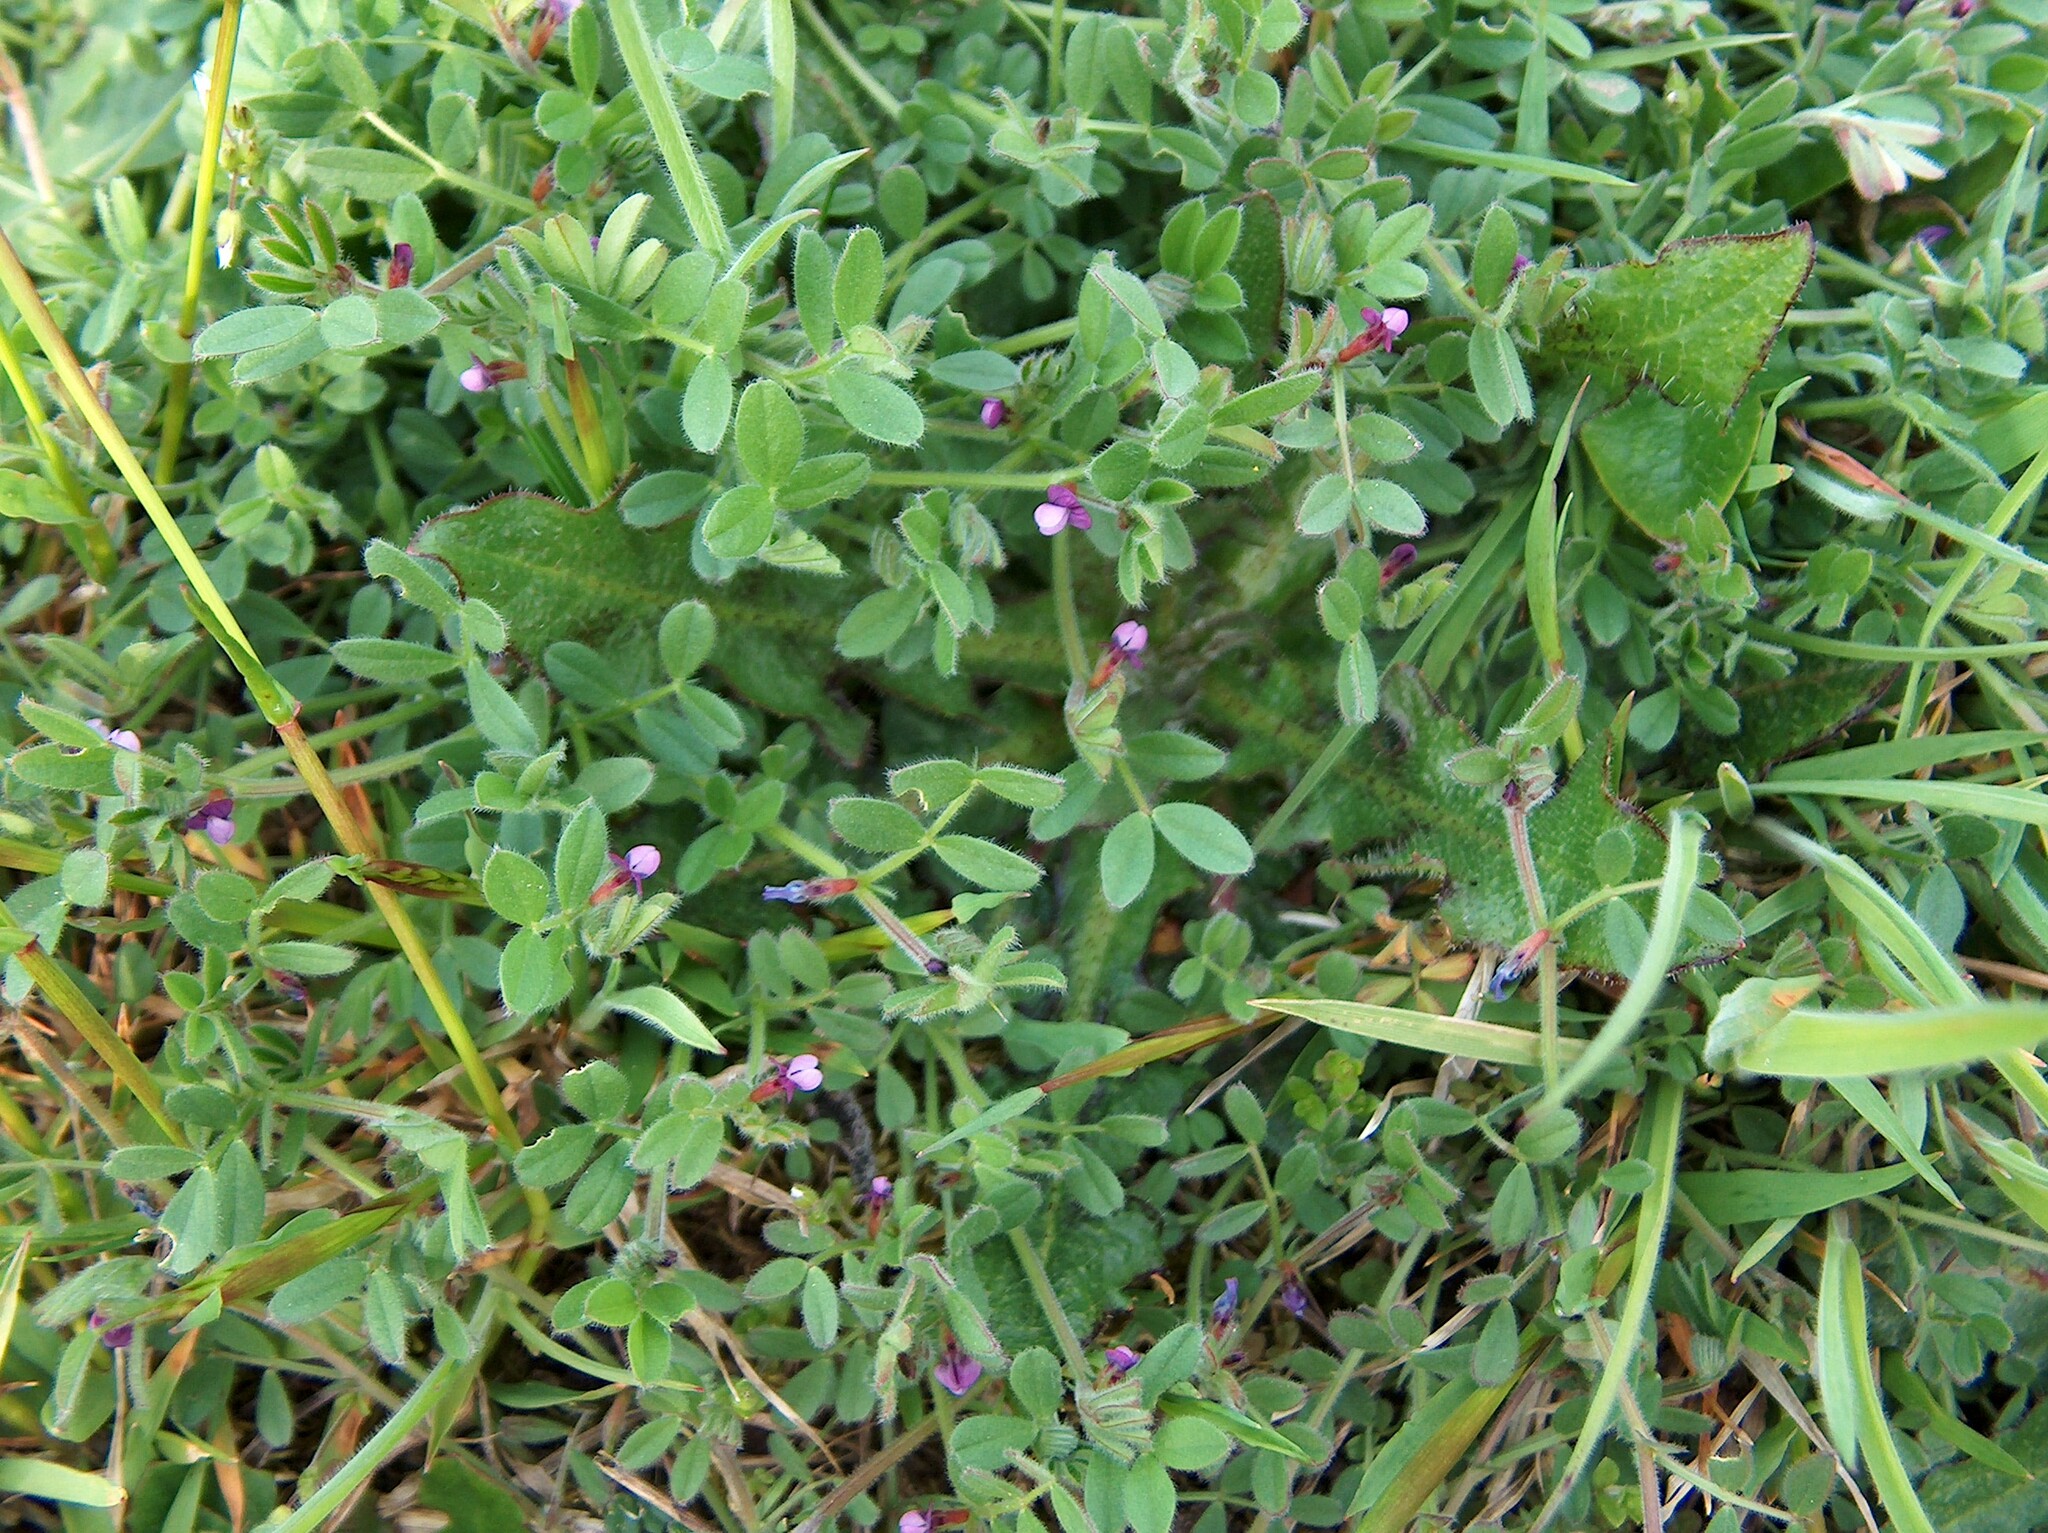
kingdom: Plantae
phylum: Tracheophyta
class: Magnoliopsida
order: Fabales
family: Fabaceae
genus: Vicia
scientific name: Vicia lathyroides
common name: Spring vetch
